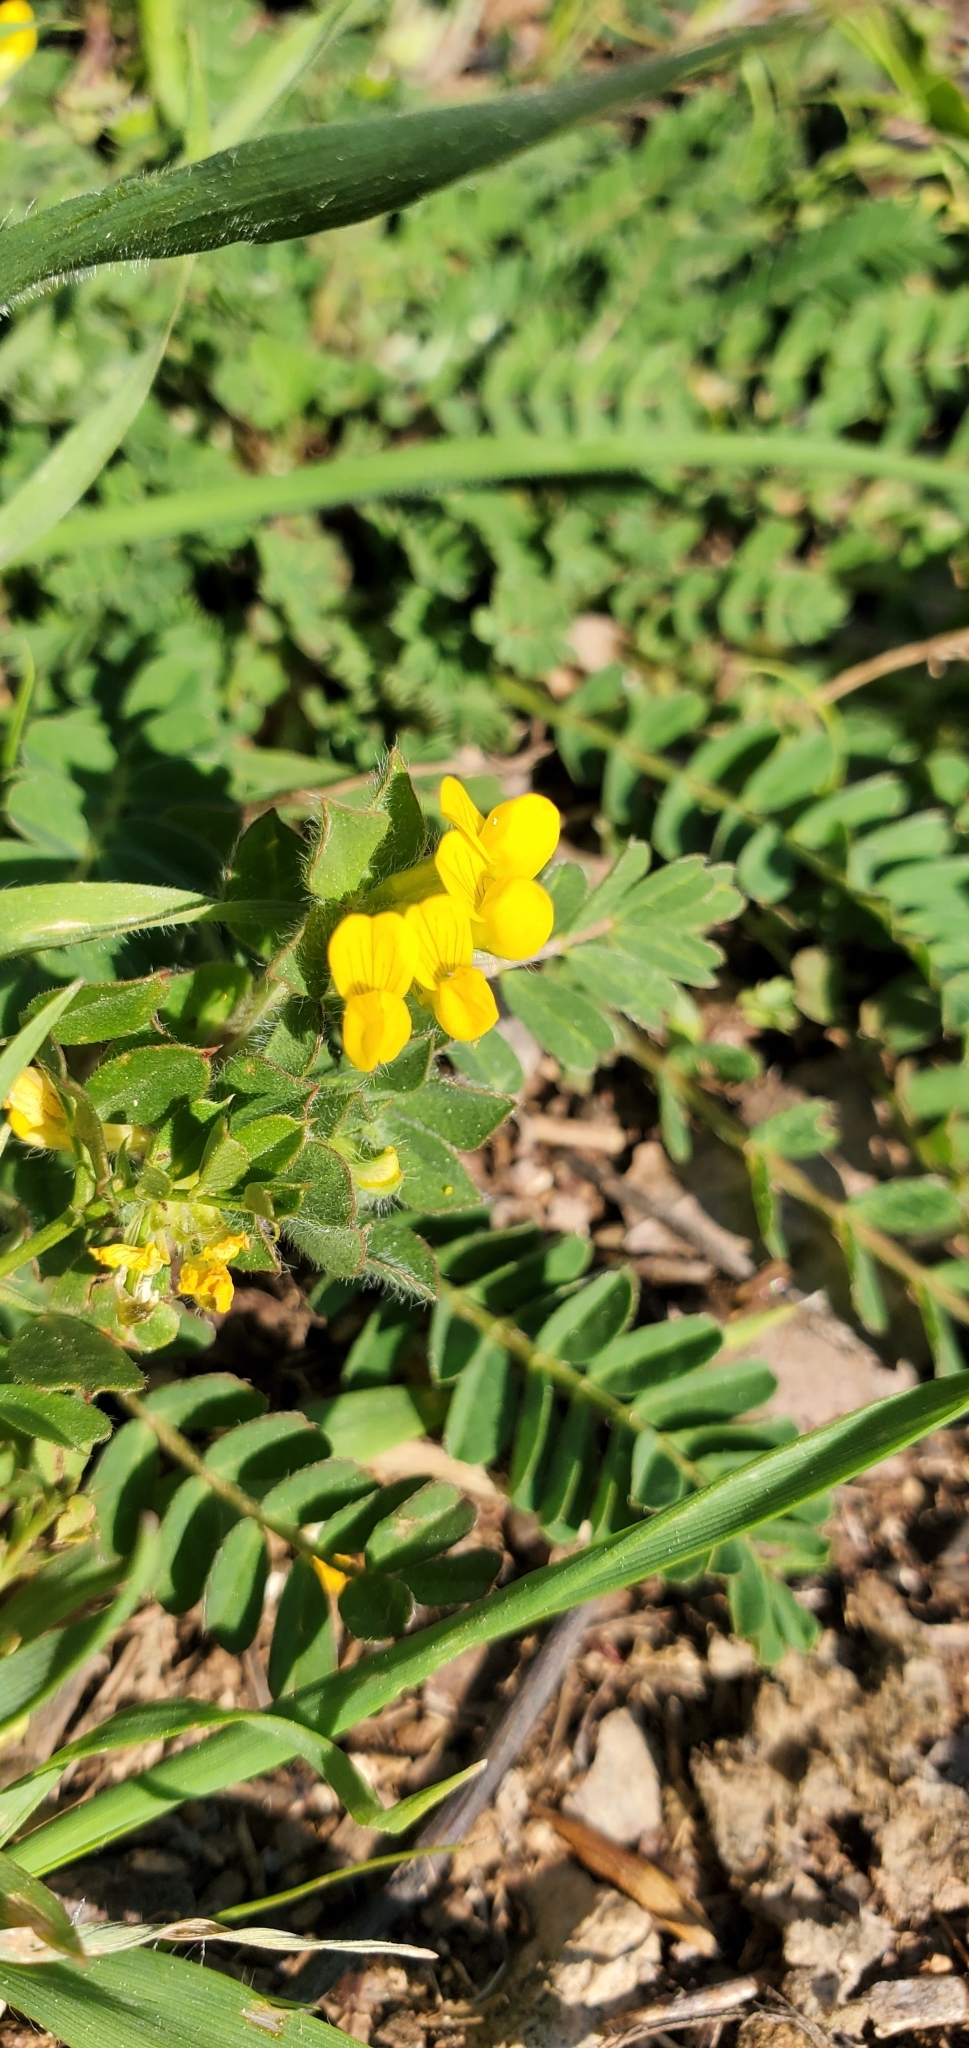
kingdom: Plantae
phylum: Tracheophyta
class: Magnoliopsida
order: Fabales
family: Fabaceae
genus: Lotus
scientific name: Lotus ornithopodioides
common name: Southern bird's-foot trefoil
